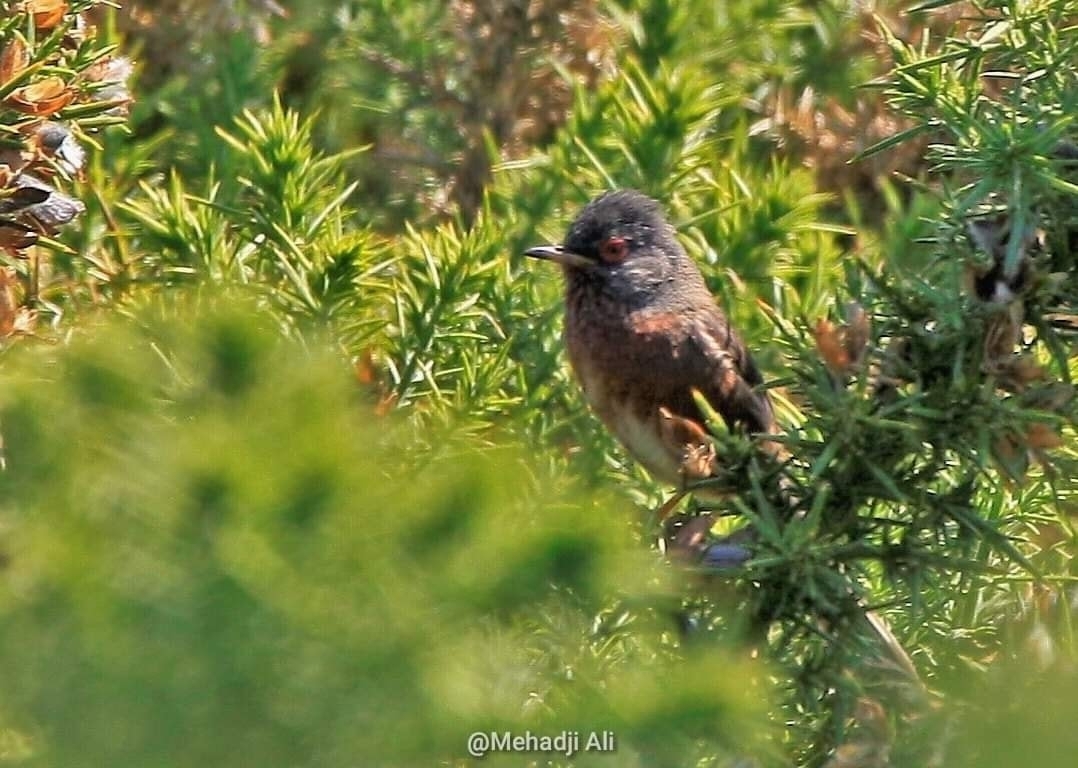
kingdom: Animalia
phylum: Chordata
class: Aves
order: Passeriformes
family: Sylviidae
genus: Sylvia
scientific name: Sylvia undata
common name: Dartford warbler
